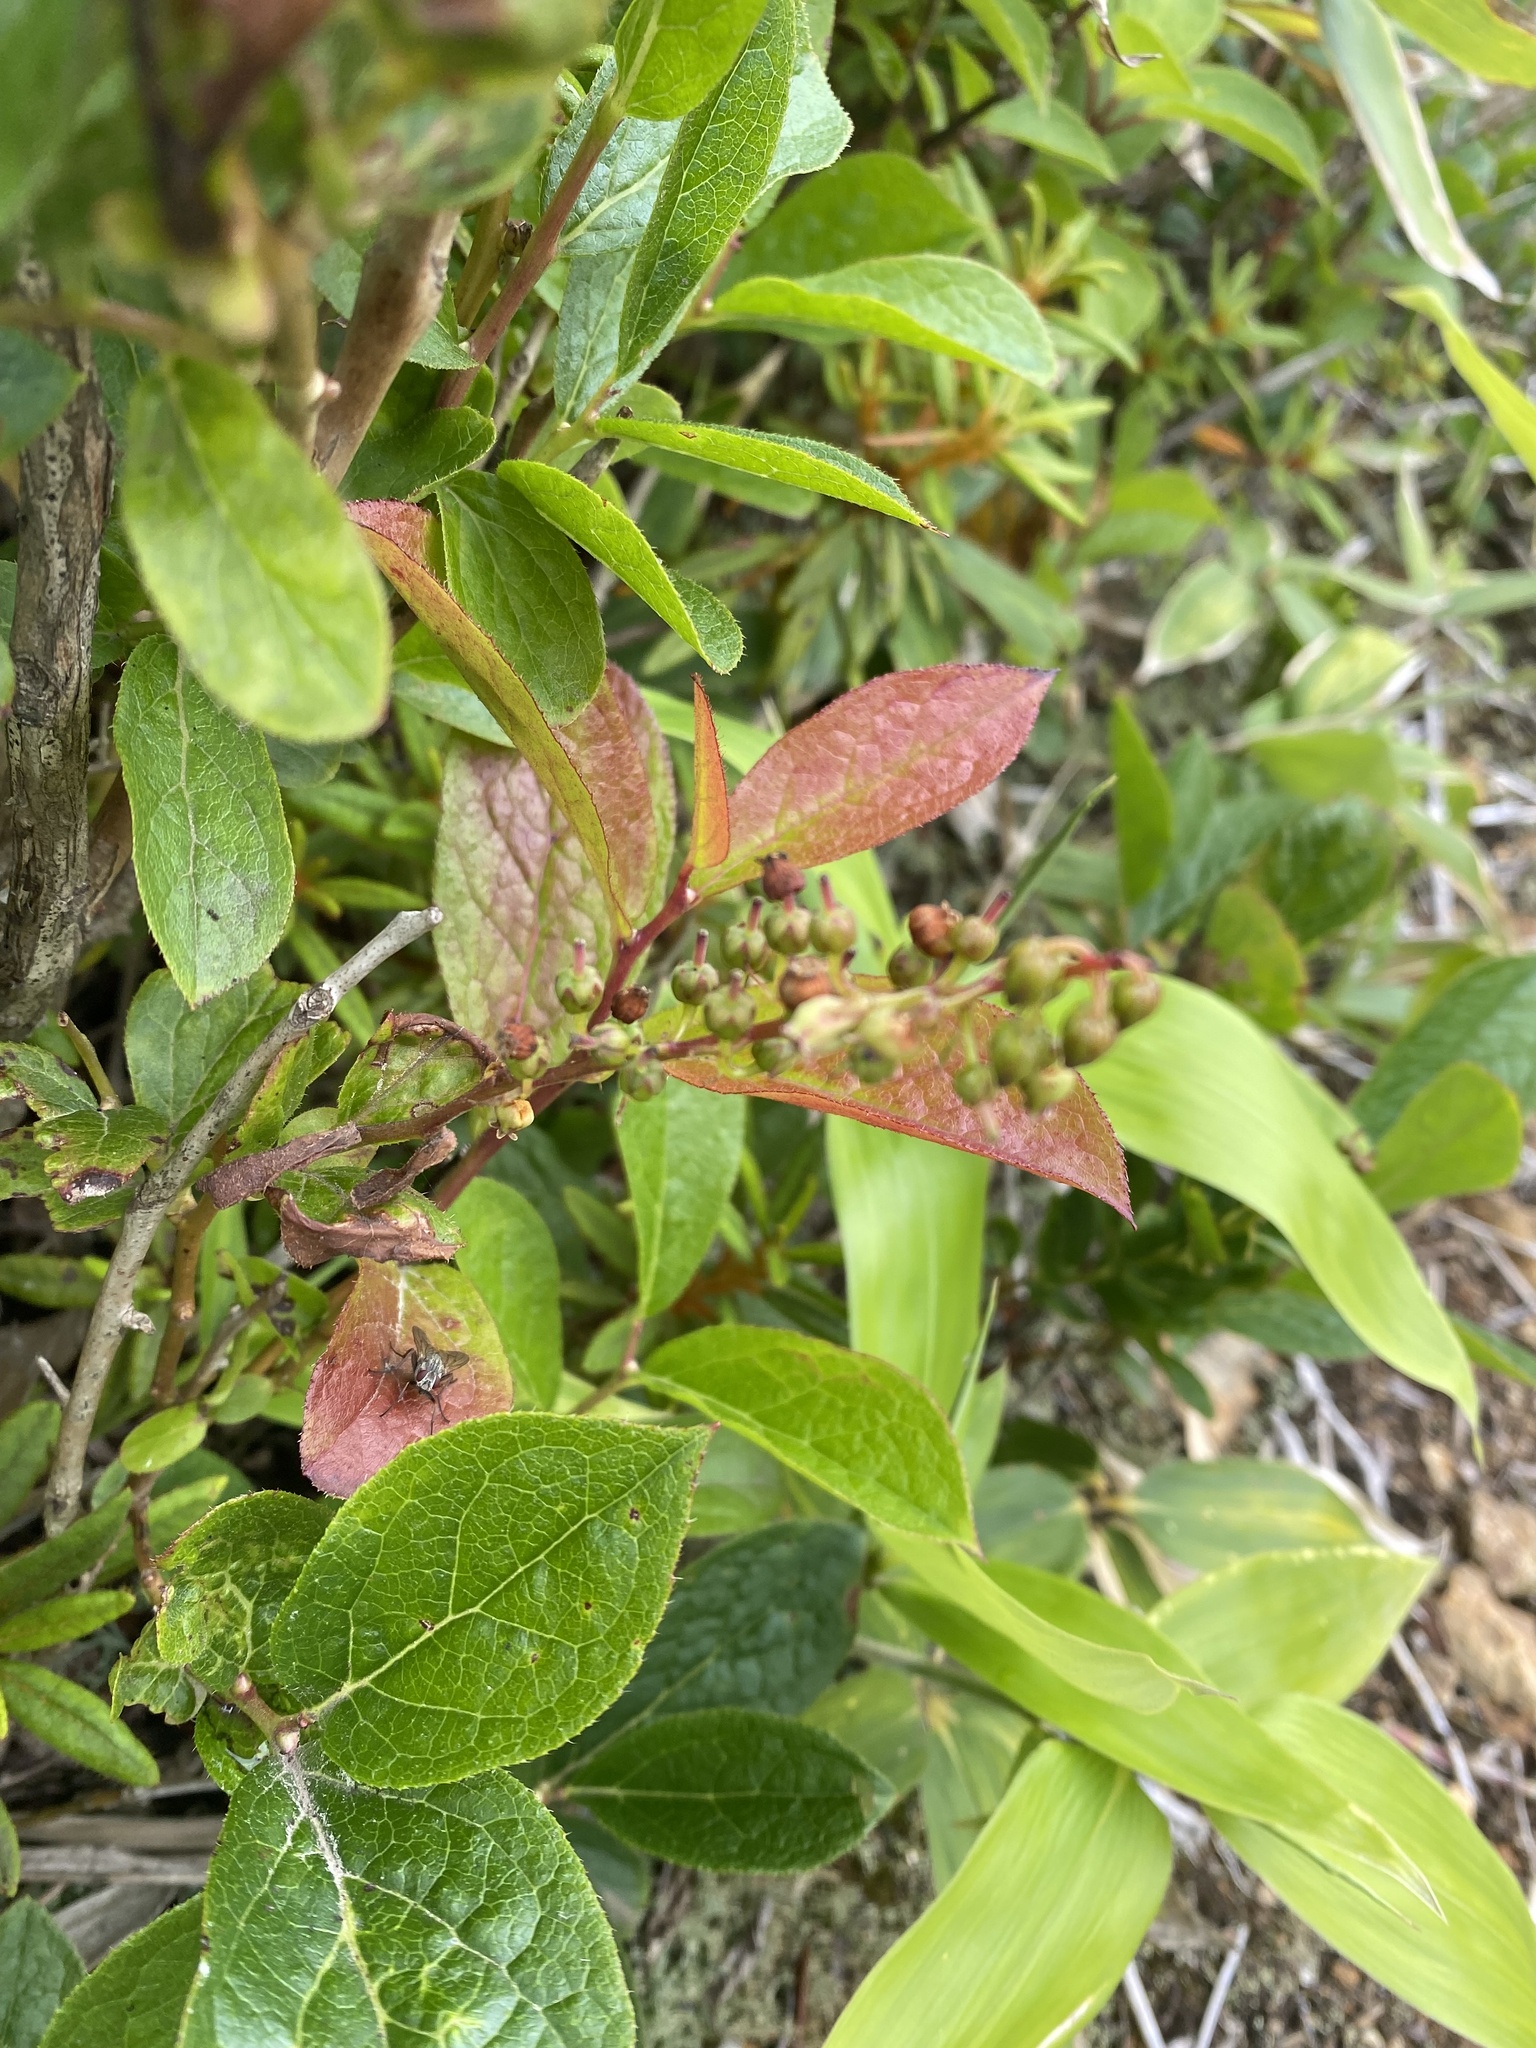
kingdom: Plantae
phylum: Tracheophyta
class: Magnoliopsida
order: Ericales
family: Ericaceae
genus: Leucothoe
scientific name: Leucothoe grayana
